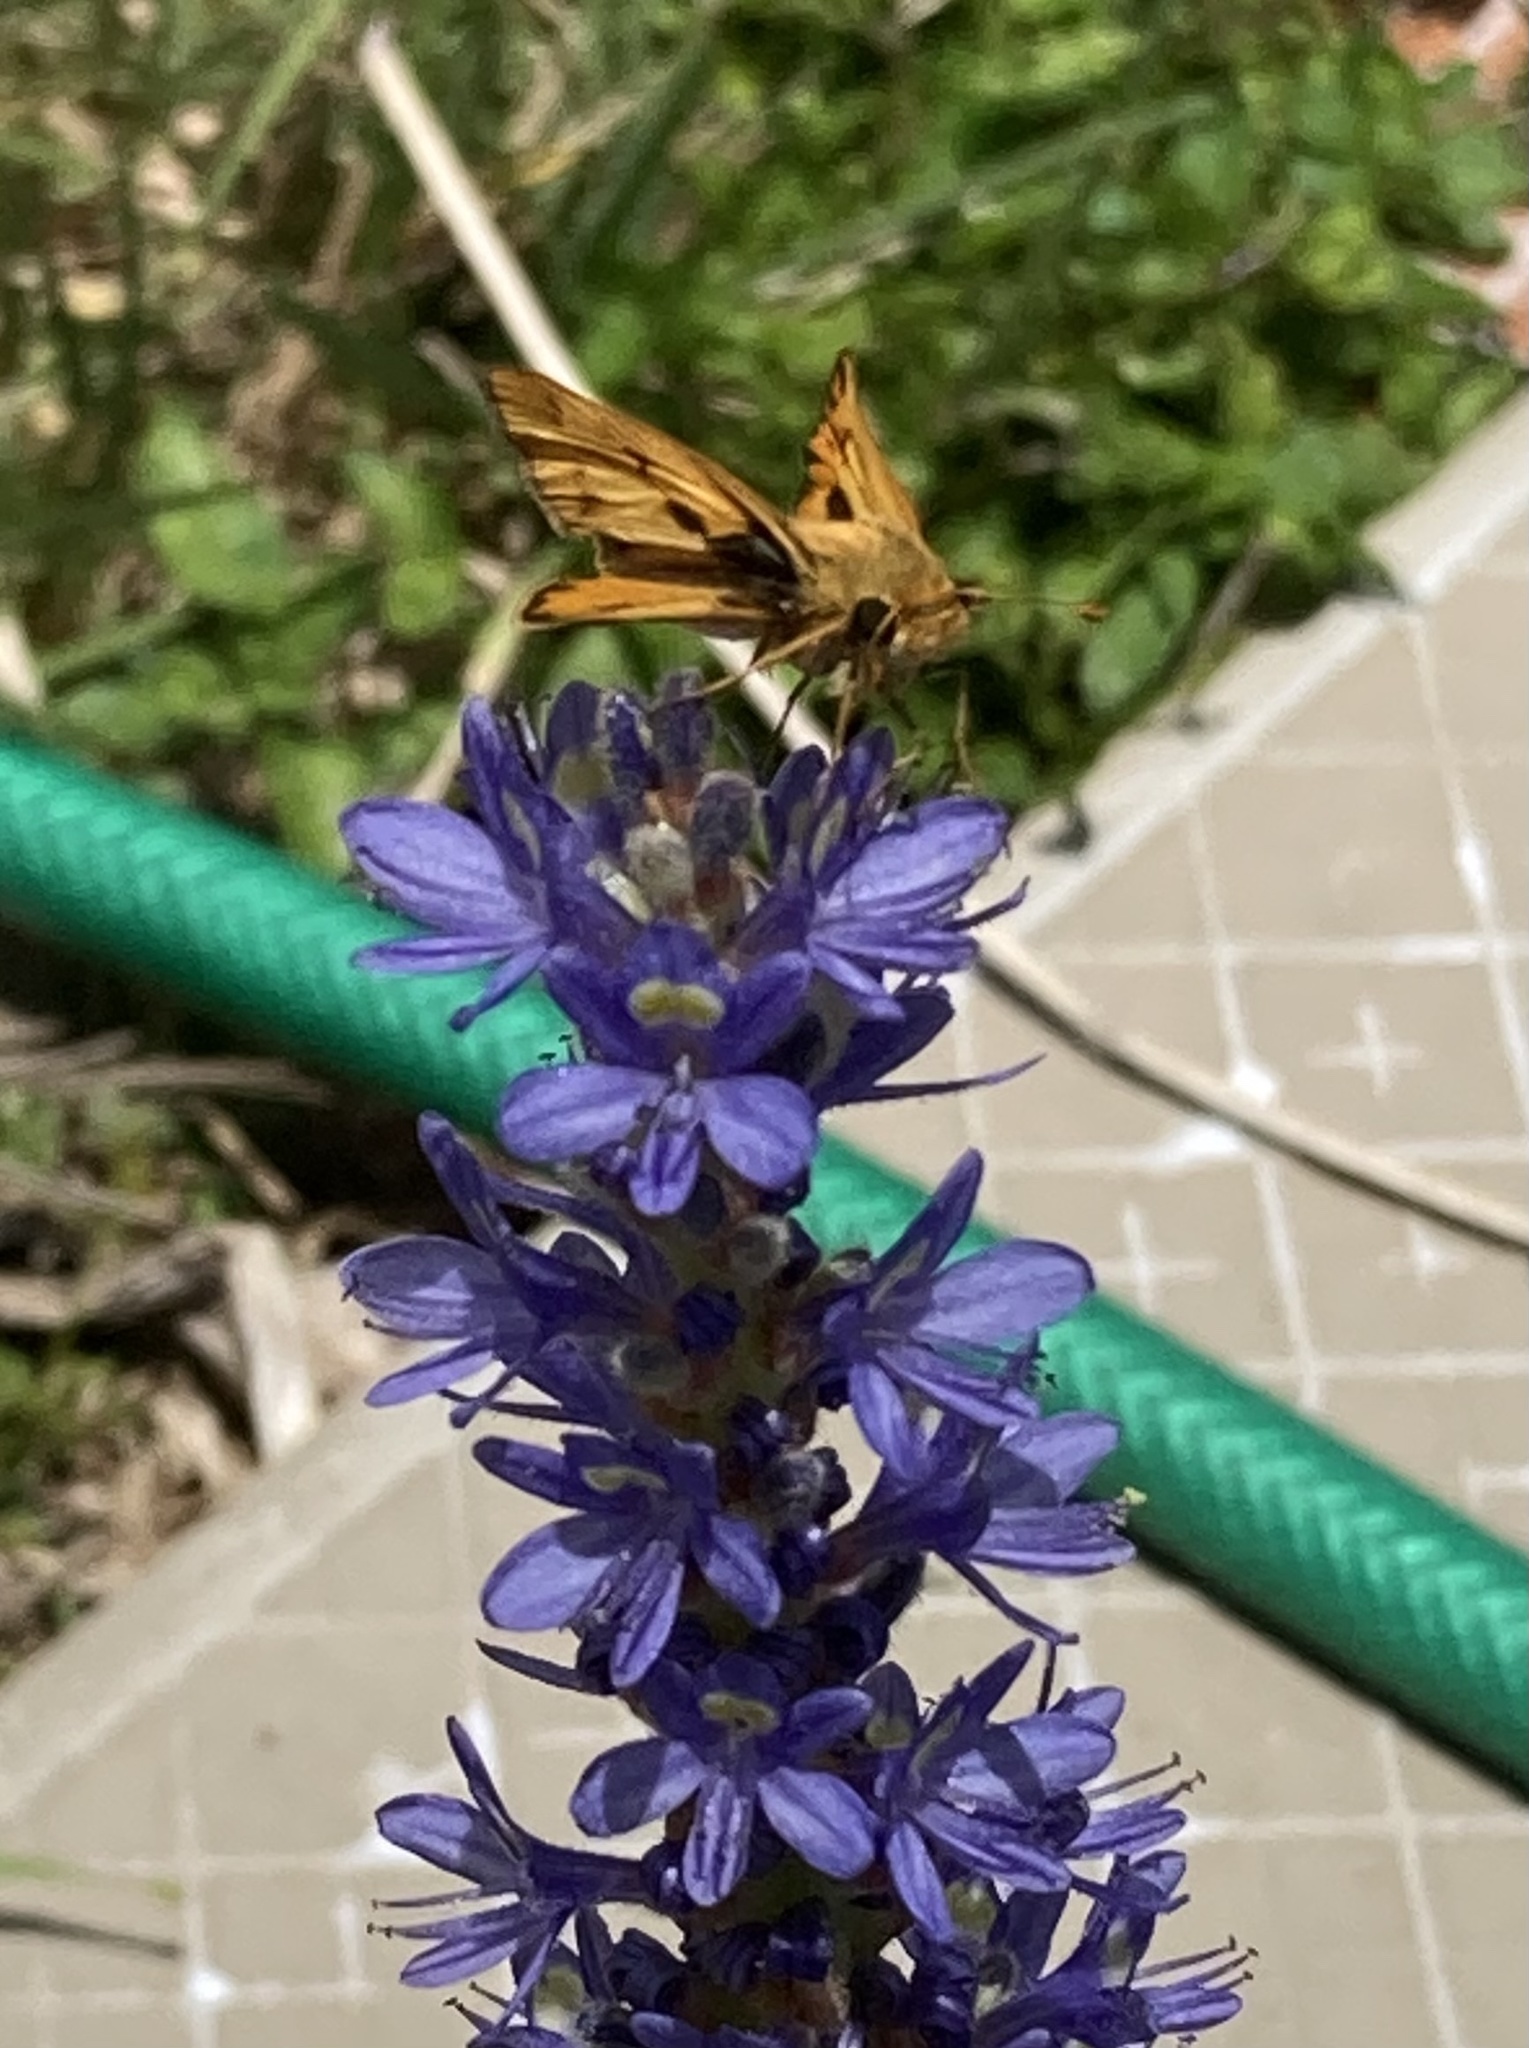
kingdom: Animalia
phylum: Arthropoda
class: Insecta
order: Lepidoptera
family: Hesperiidae
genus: Hylephila
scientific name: Hylephila phyleus
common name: Fiery skipper
